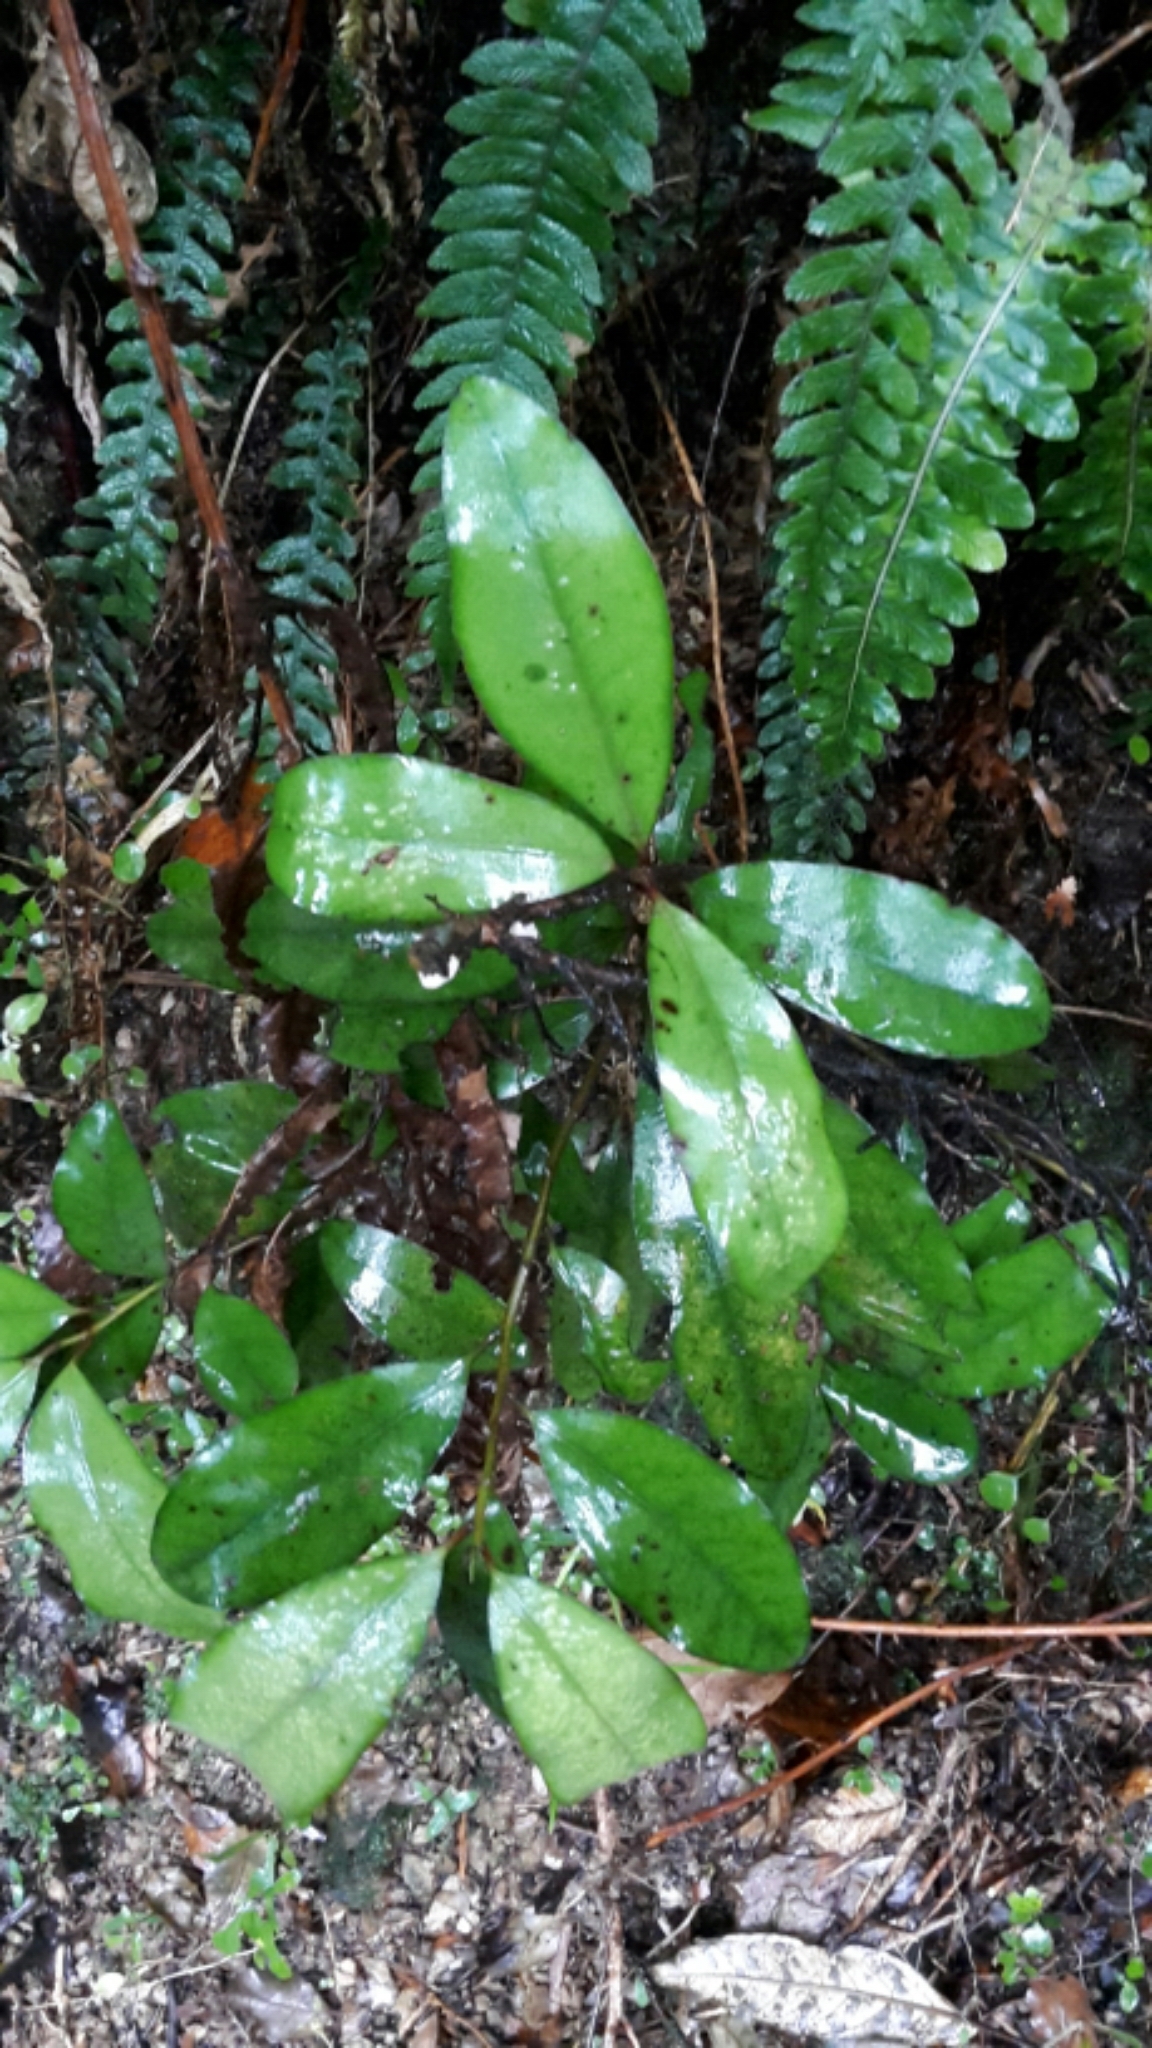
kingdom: Plantae
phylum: Tracheophyta
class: Magnoliopsida
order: Canellales
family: Winteraceae
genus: Pseudowintera
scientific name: Pseudowintera colorata
